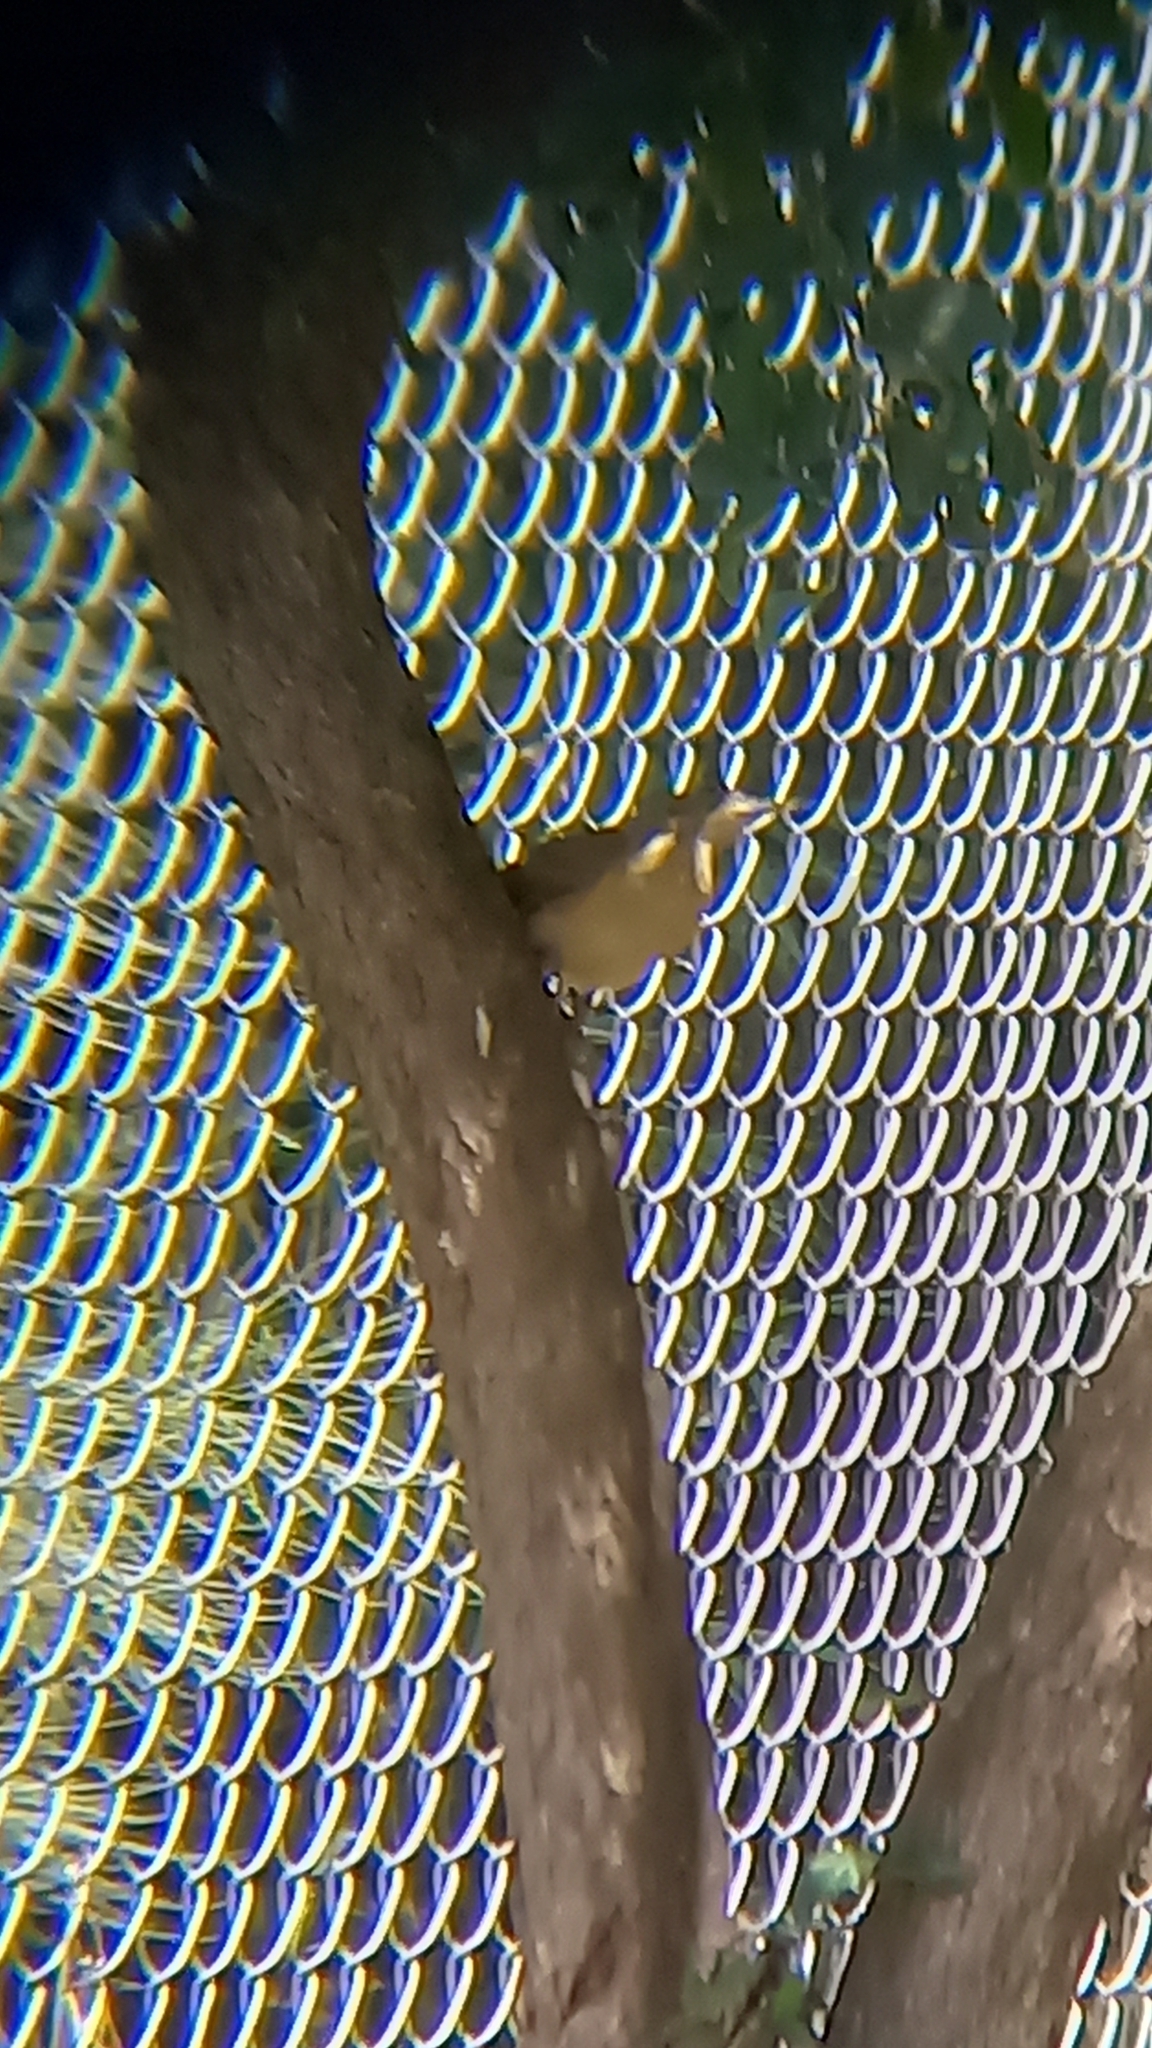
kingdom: Animalia
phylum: Chordata
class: Aves
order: Passeriformes
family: Turdidae
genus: Turdus
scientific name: Turdus grayi
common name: Clay-colored thrush
